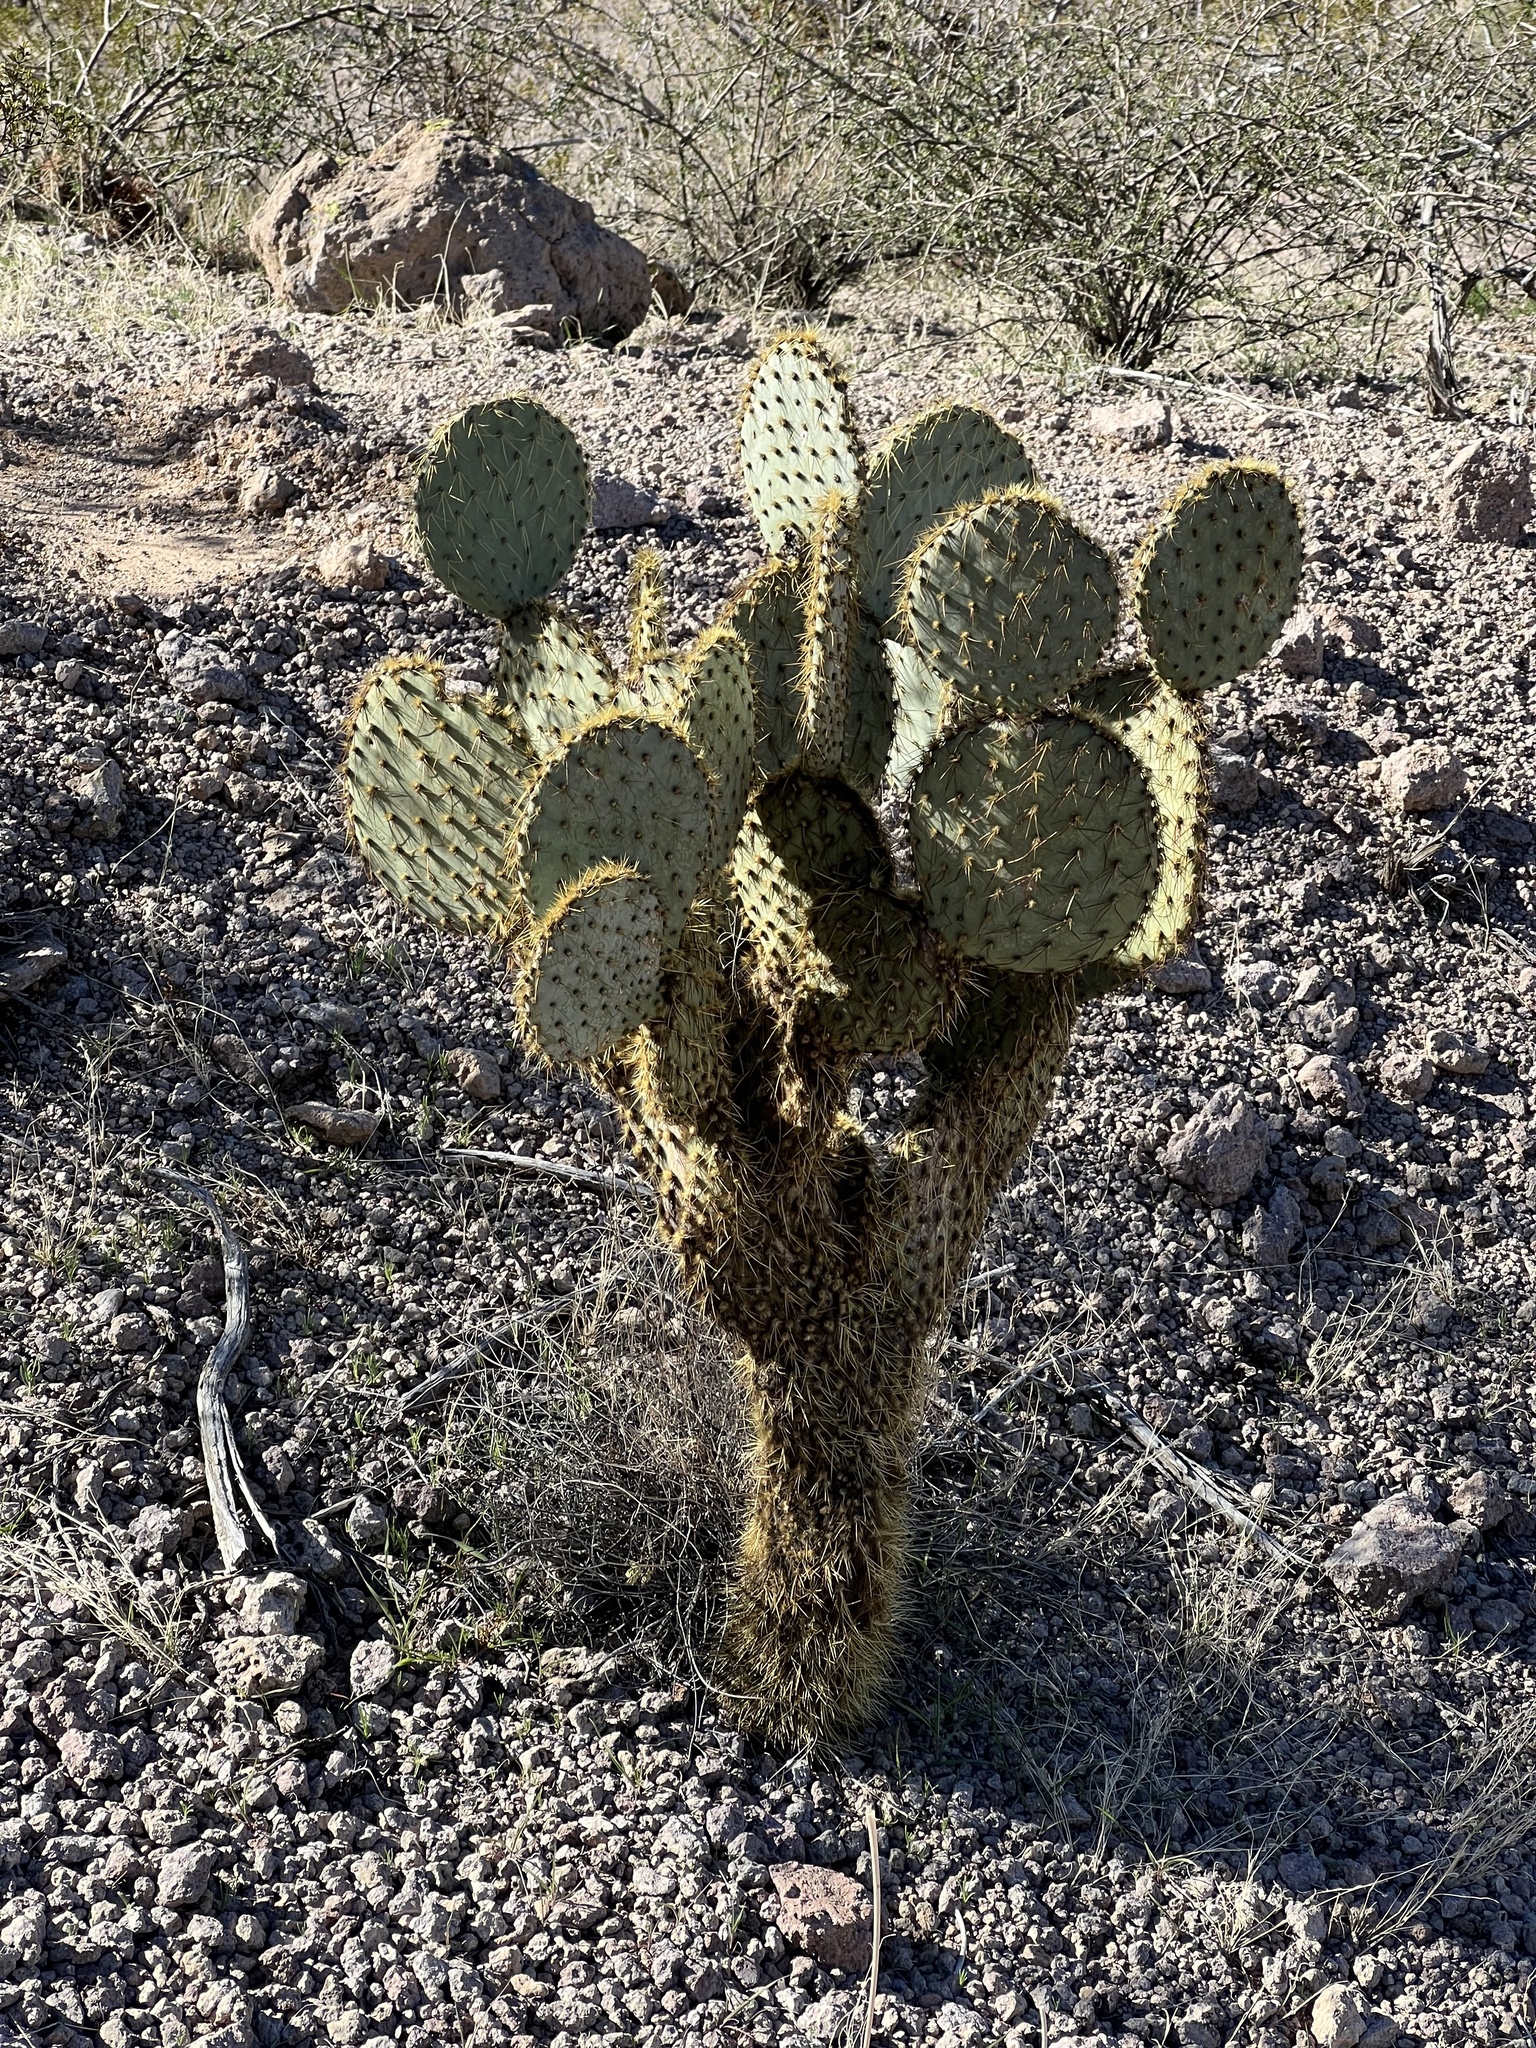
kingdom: Plantae
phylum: Tracheophyta
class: Magnoliopsida
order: Caryophyllales
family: Cactaceae
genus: Opuntia
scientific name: Opuntia chlorotica
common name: Dollar-joint prickly-pear
